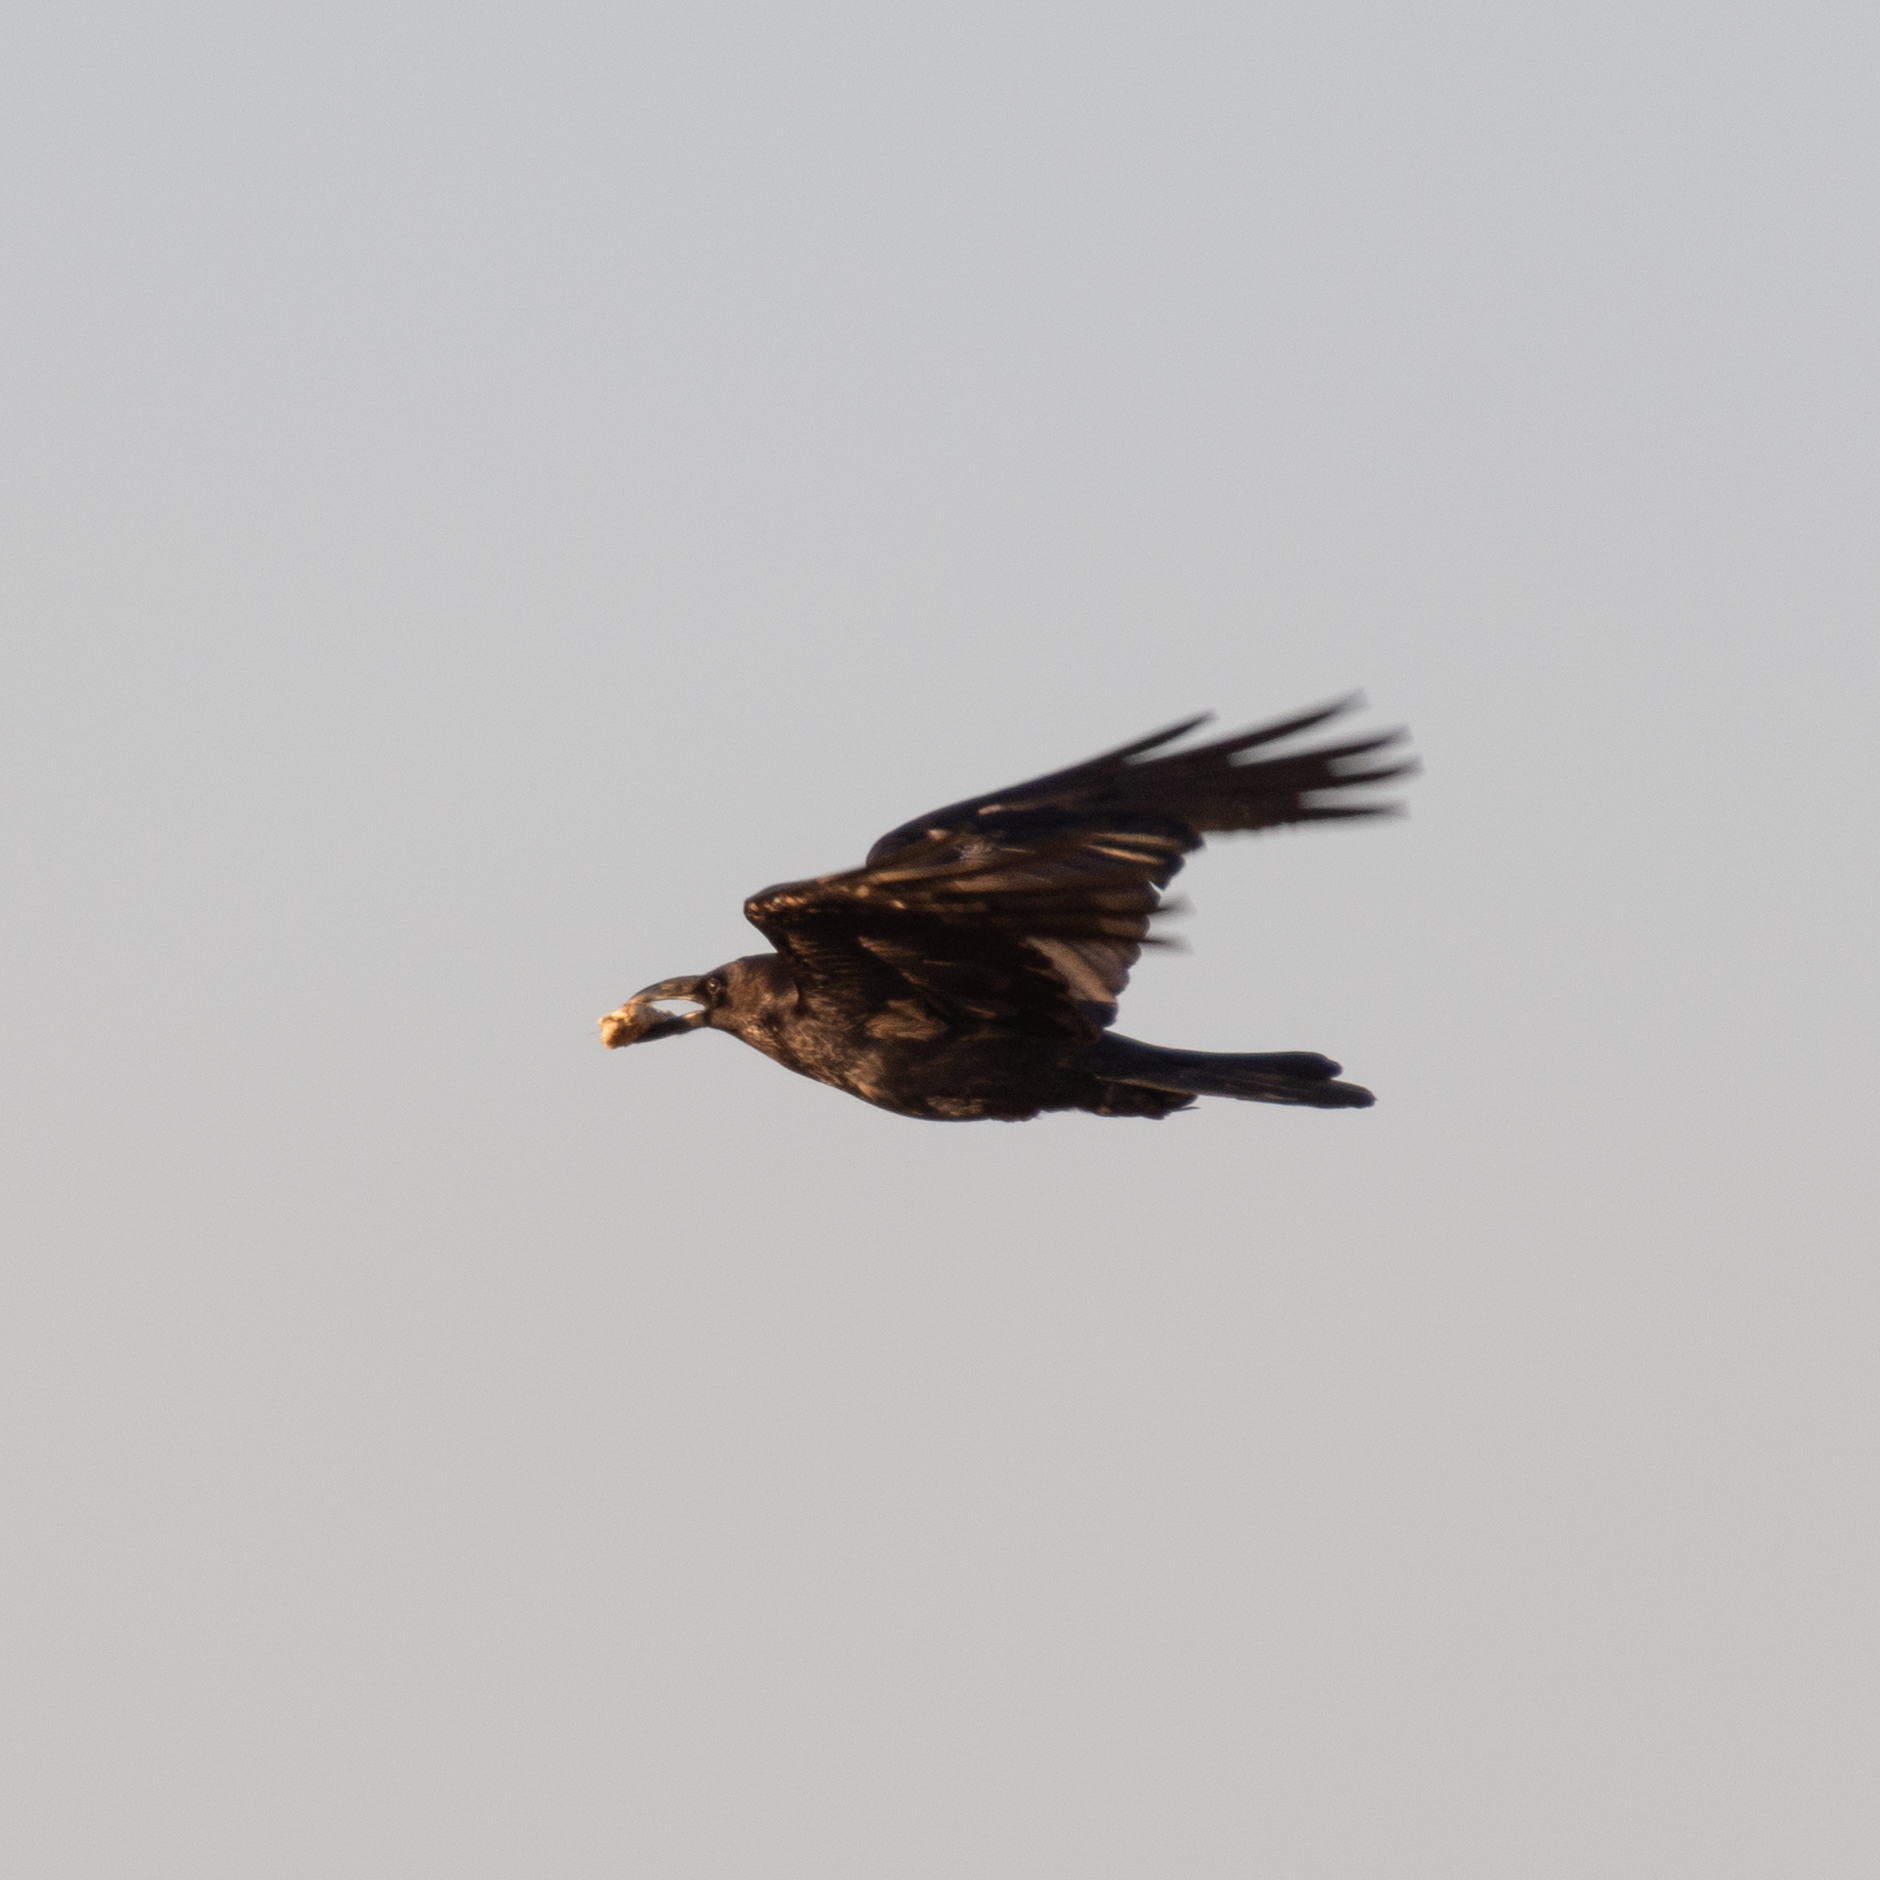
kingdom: Animalia
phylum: Chordata
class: Aves
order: Passeriformes
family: Corvidae
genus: Corvus
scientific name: Corvus corax
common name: Common raven
